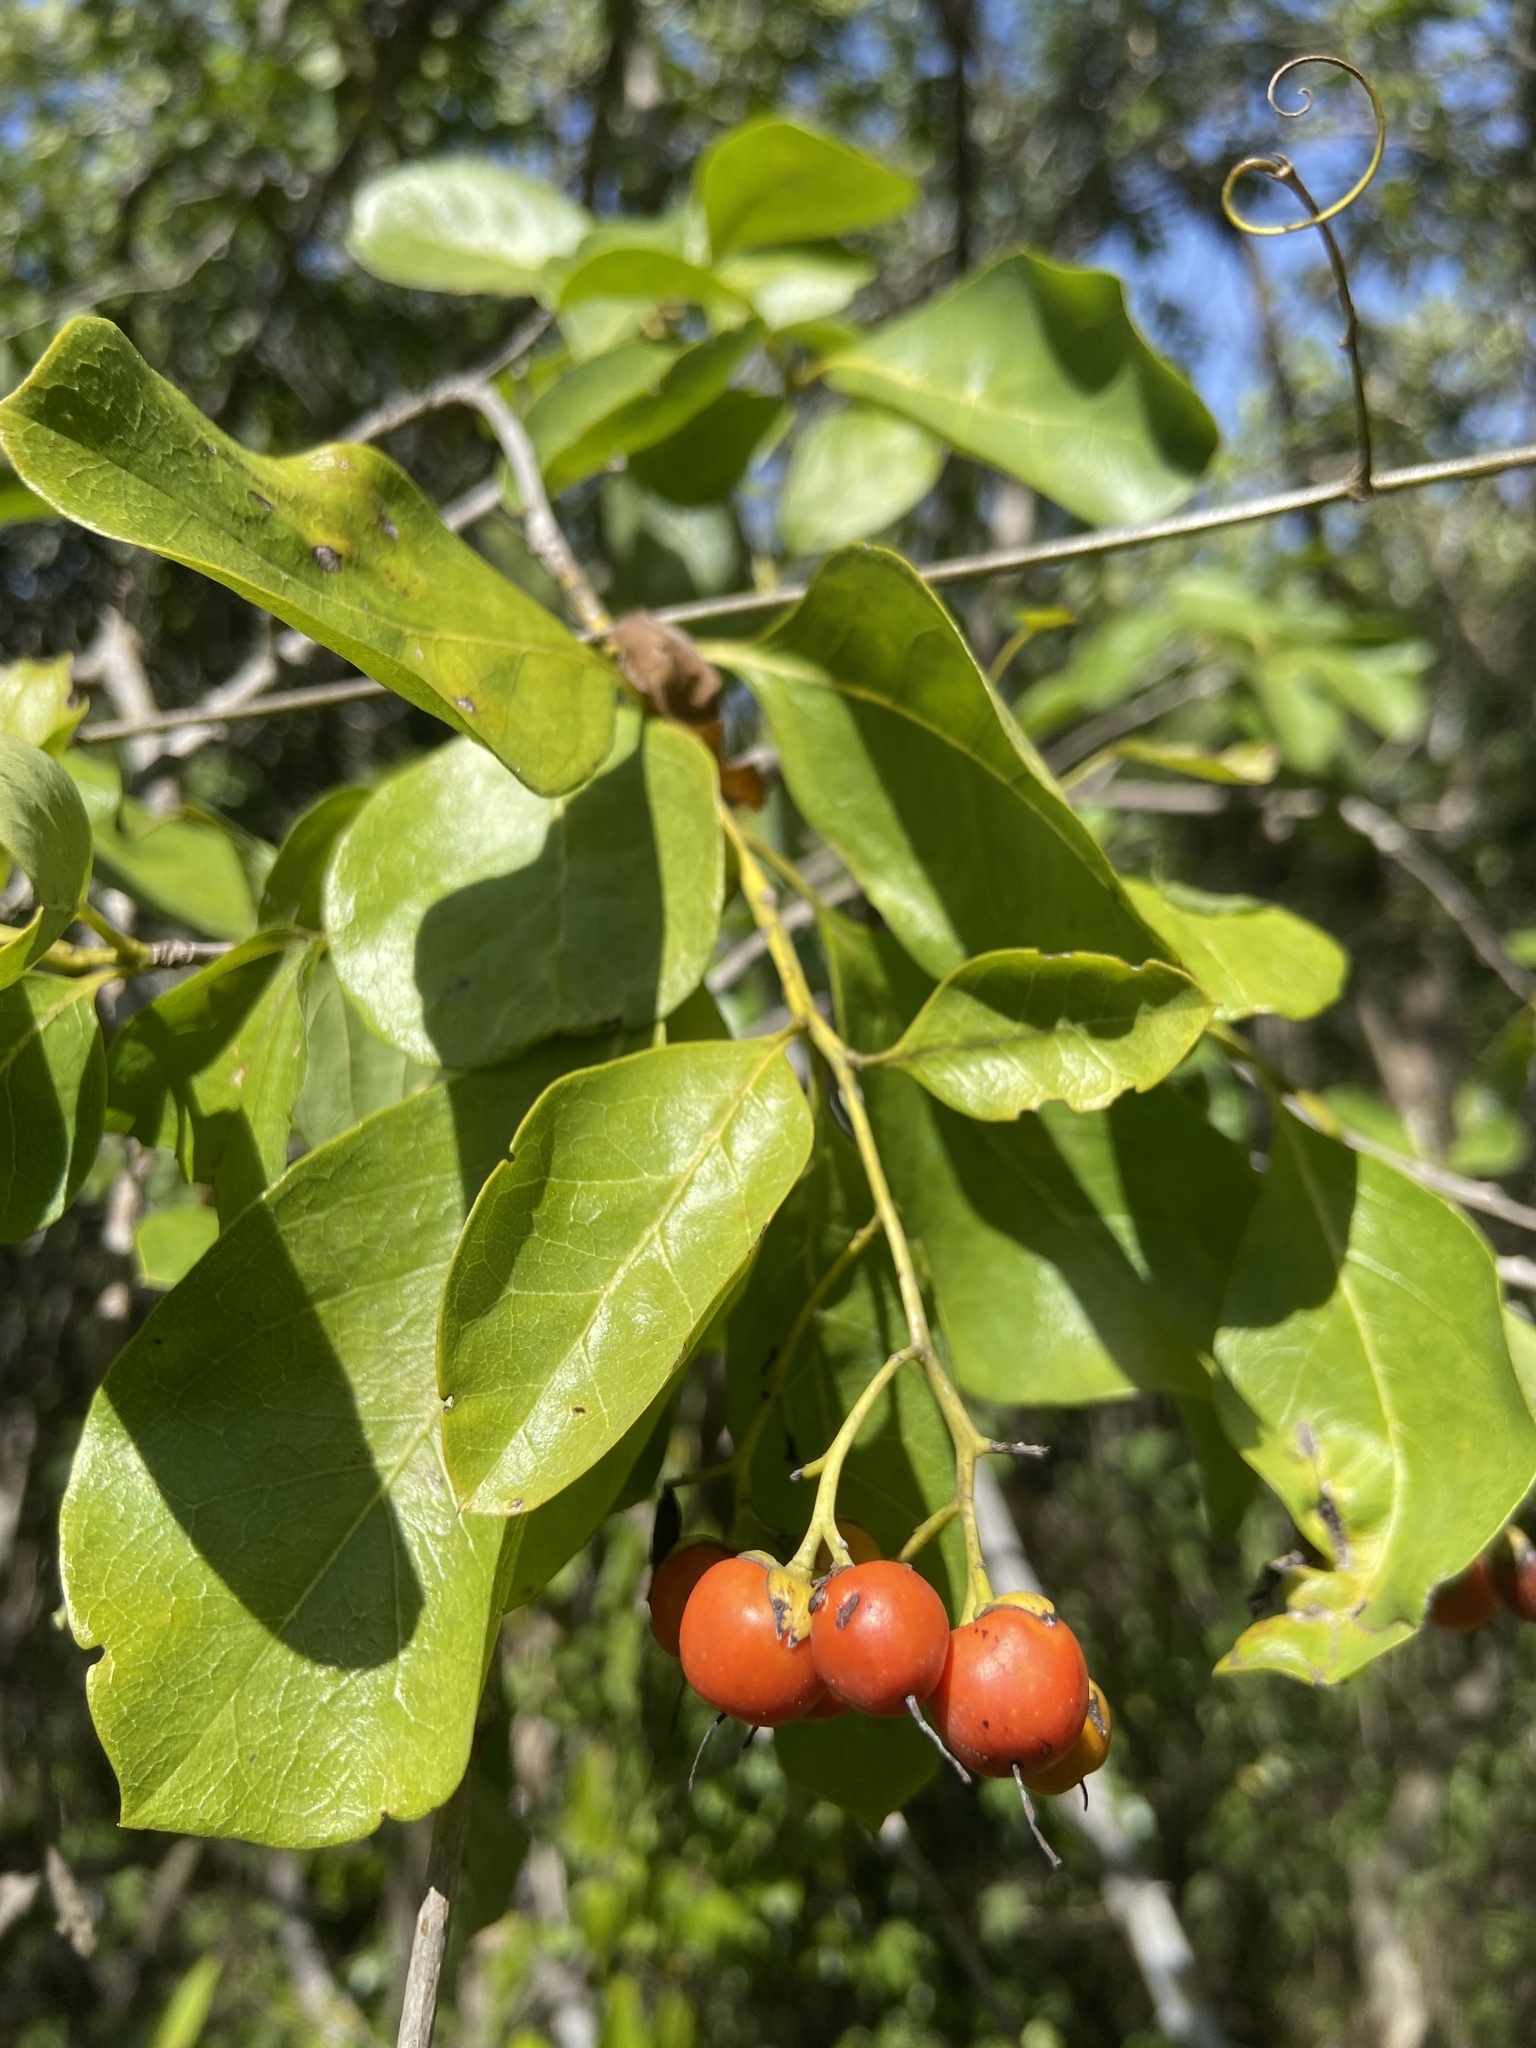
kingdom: Plantae
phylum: Tracheophyta
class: Magnoliopsida
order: Boraginales
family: Ehretiaceae
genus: Bourreria
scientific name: Bourreria succulenta
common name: Cherry
